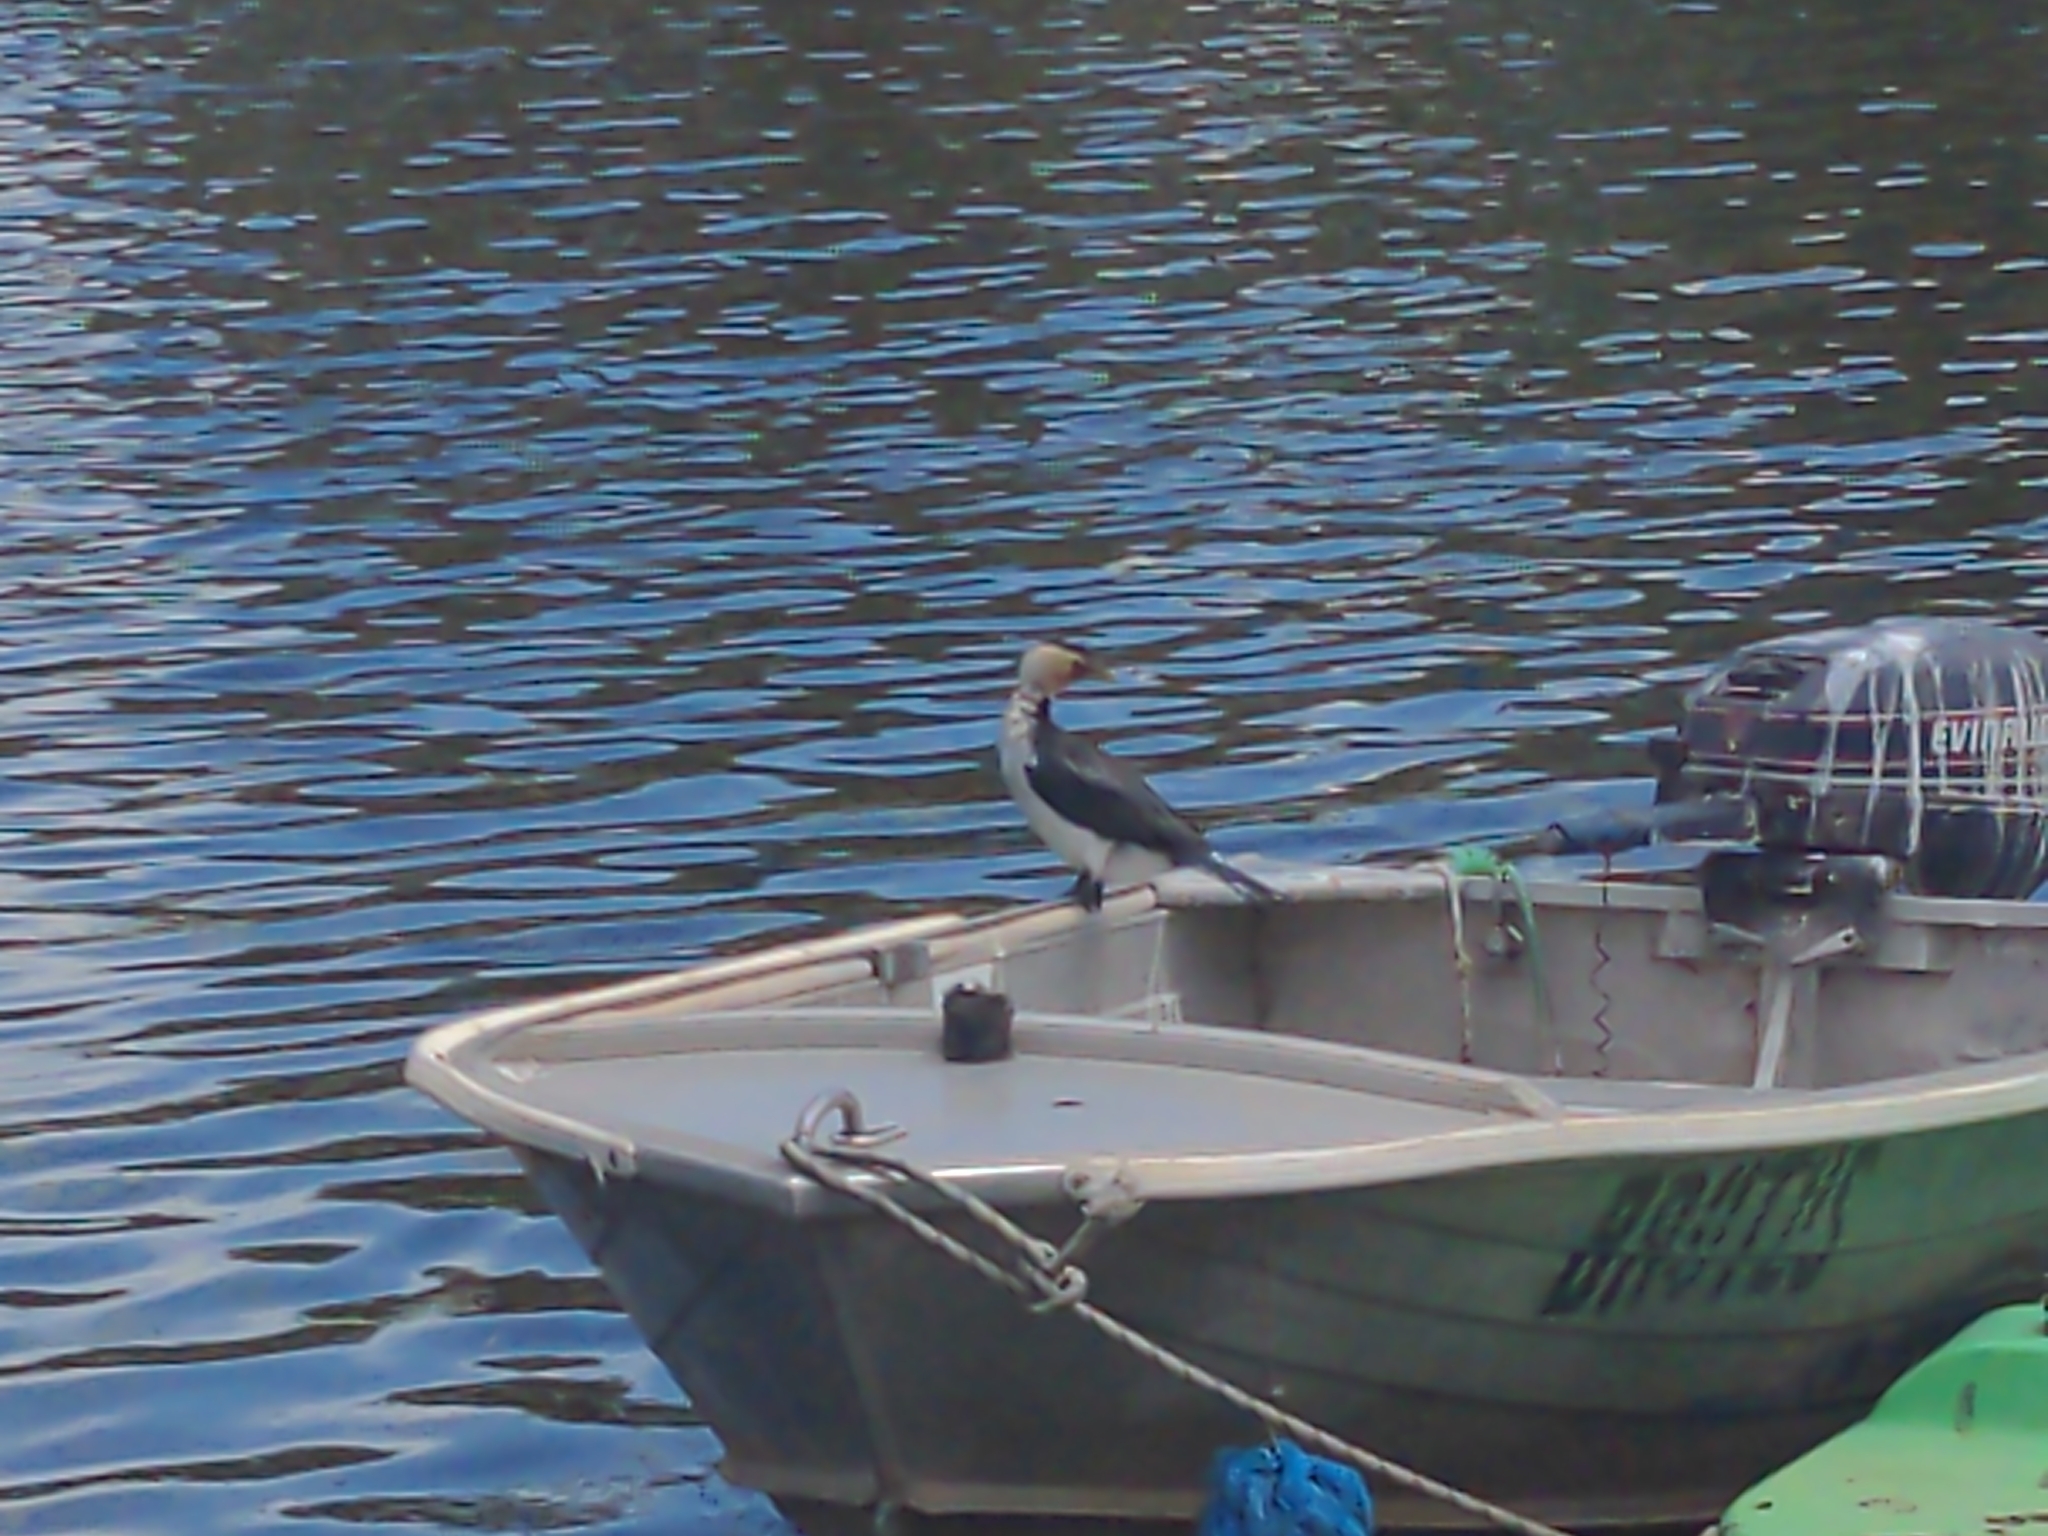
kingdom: Animalia
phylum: Chordata
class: Aves
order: Suliformes
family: Phalacrocoracidae
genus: Microcarbo
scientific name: Microcarbo melanoleucos
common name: Little pied cormorant
